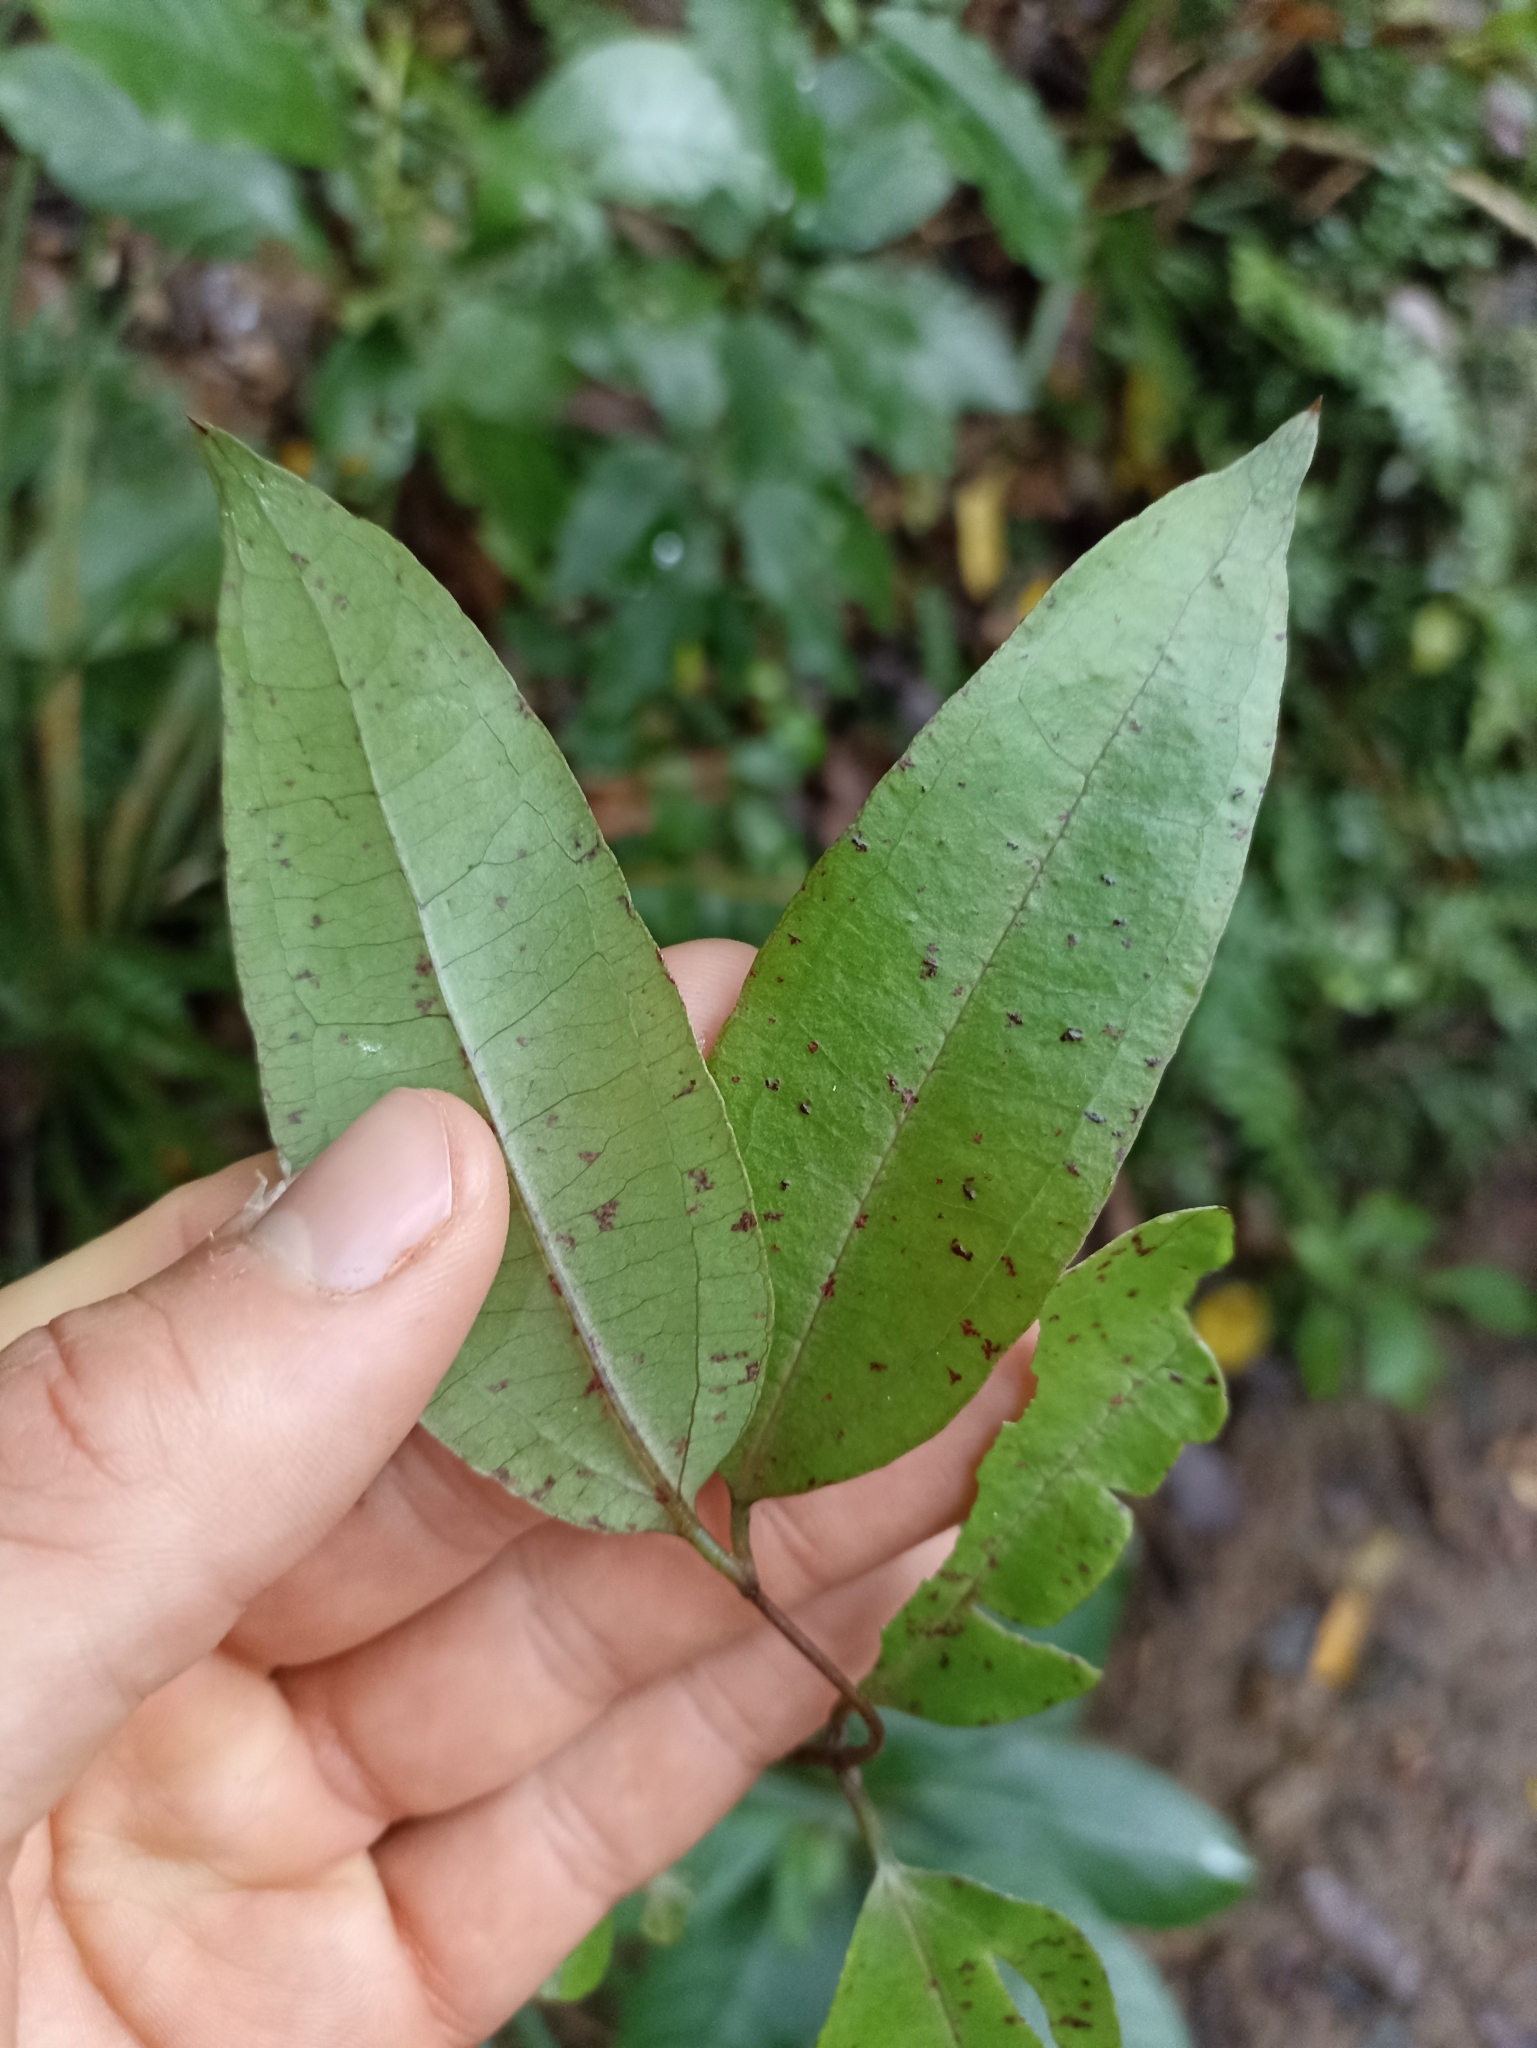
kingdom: Plantae
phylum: Tracheophyta
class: Liliopsida
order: Liliales
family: Ripogonaceae
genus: Ripogonum
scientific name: Ripogonum scandens
